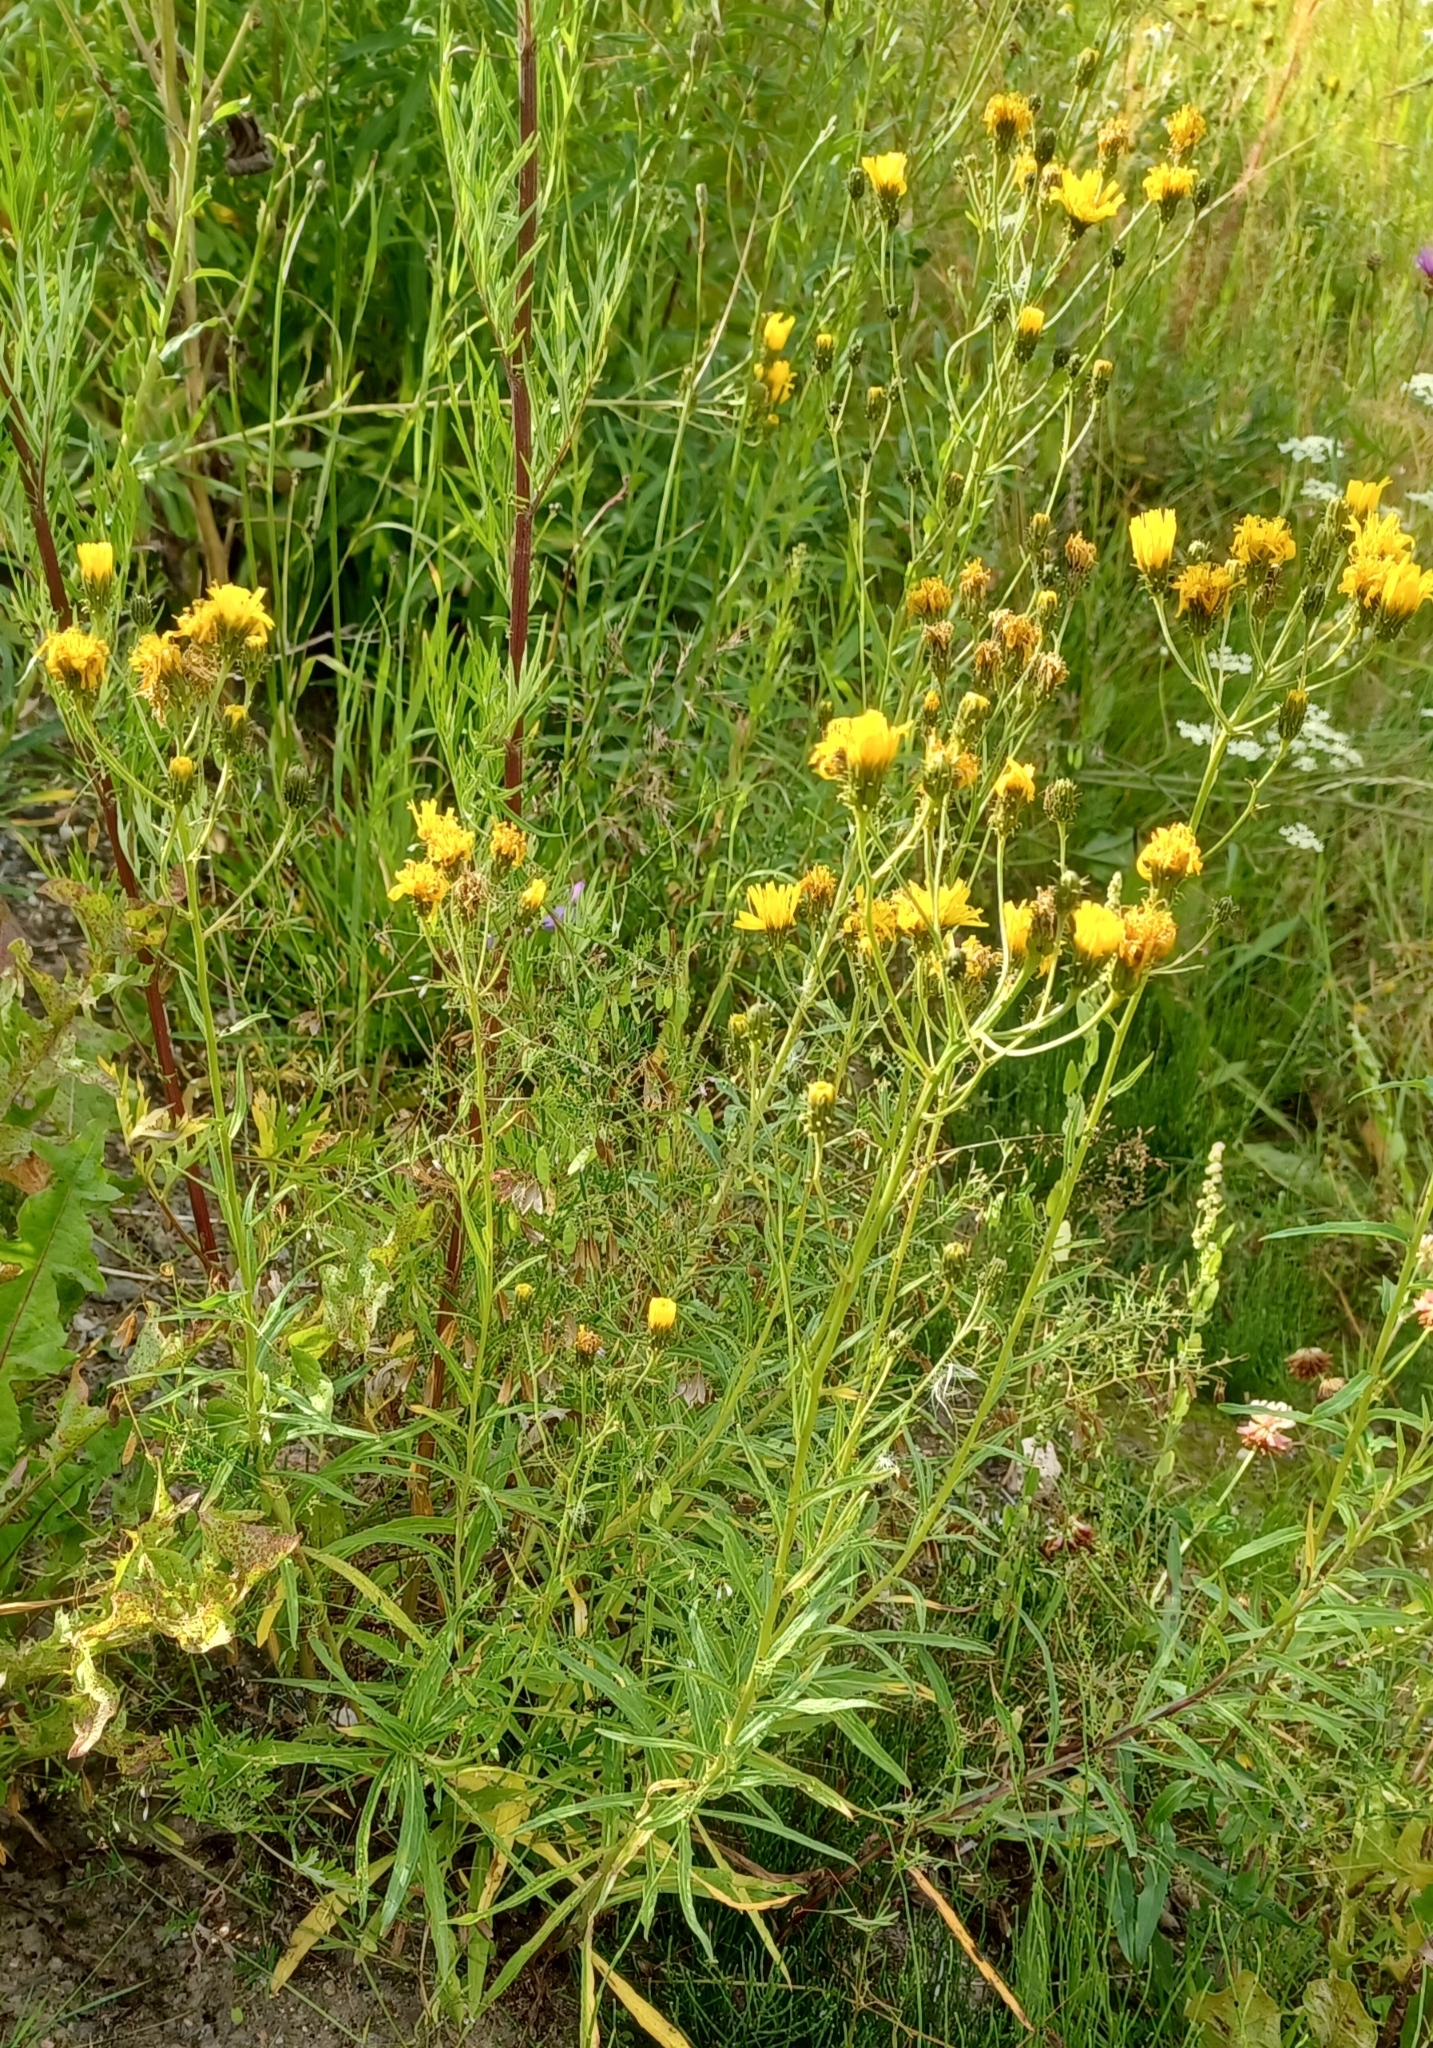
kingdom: Plantae
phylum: Tracheophyta
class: Magnoliopsida
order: Asterales
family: Asteraceae
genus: Hieracium
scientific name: Hieracium umbellatum
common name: Northern hawkweed
